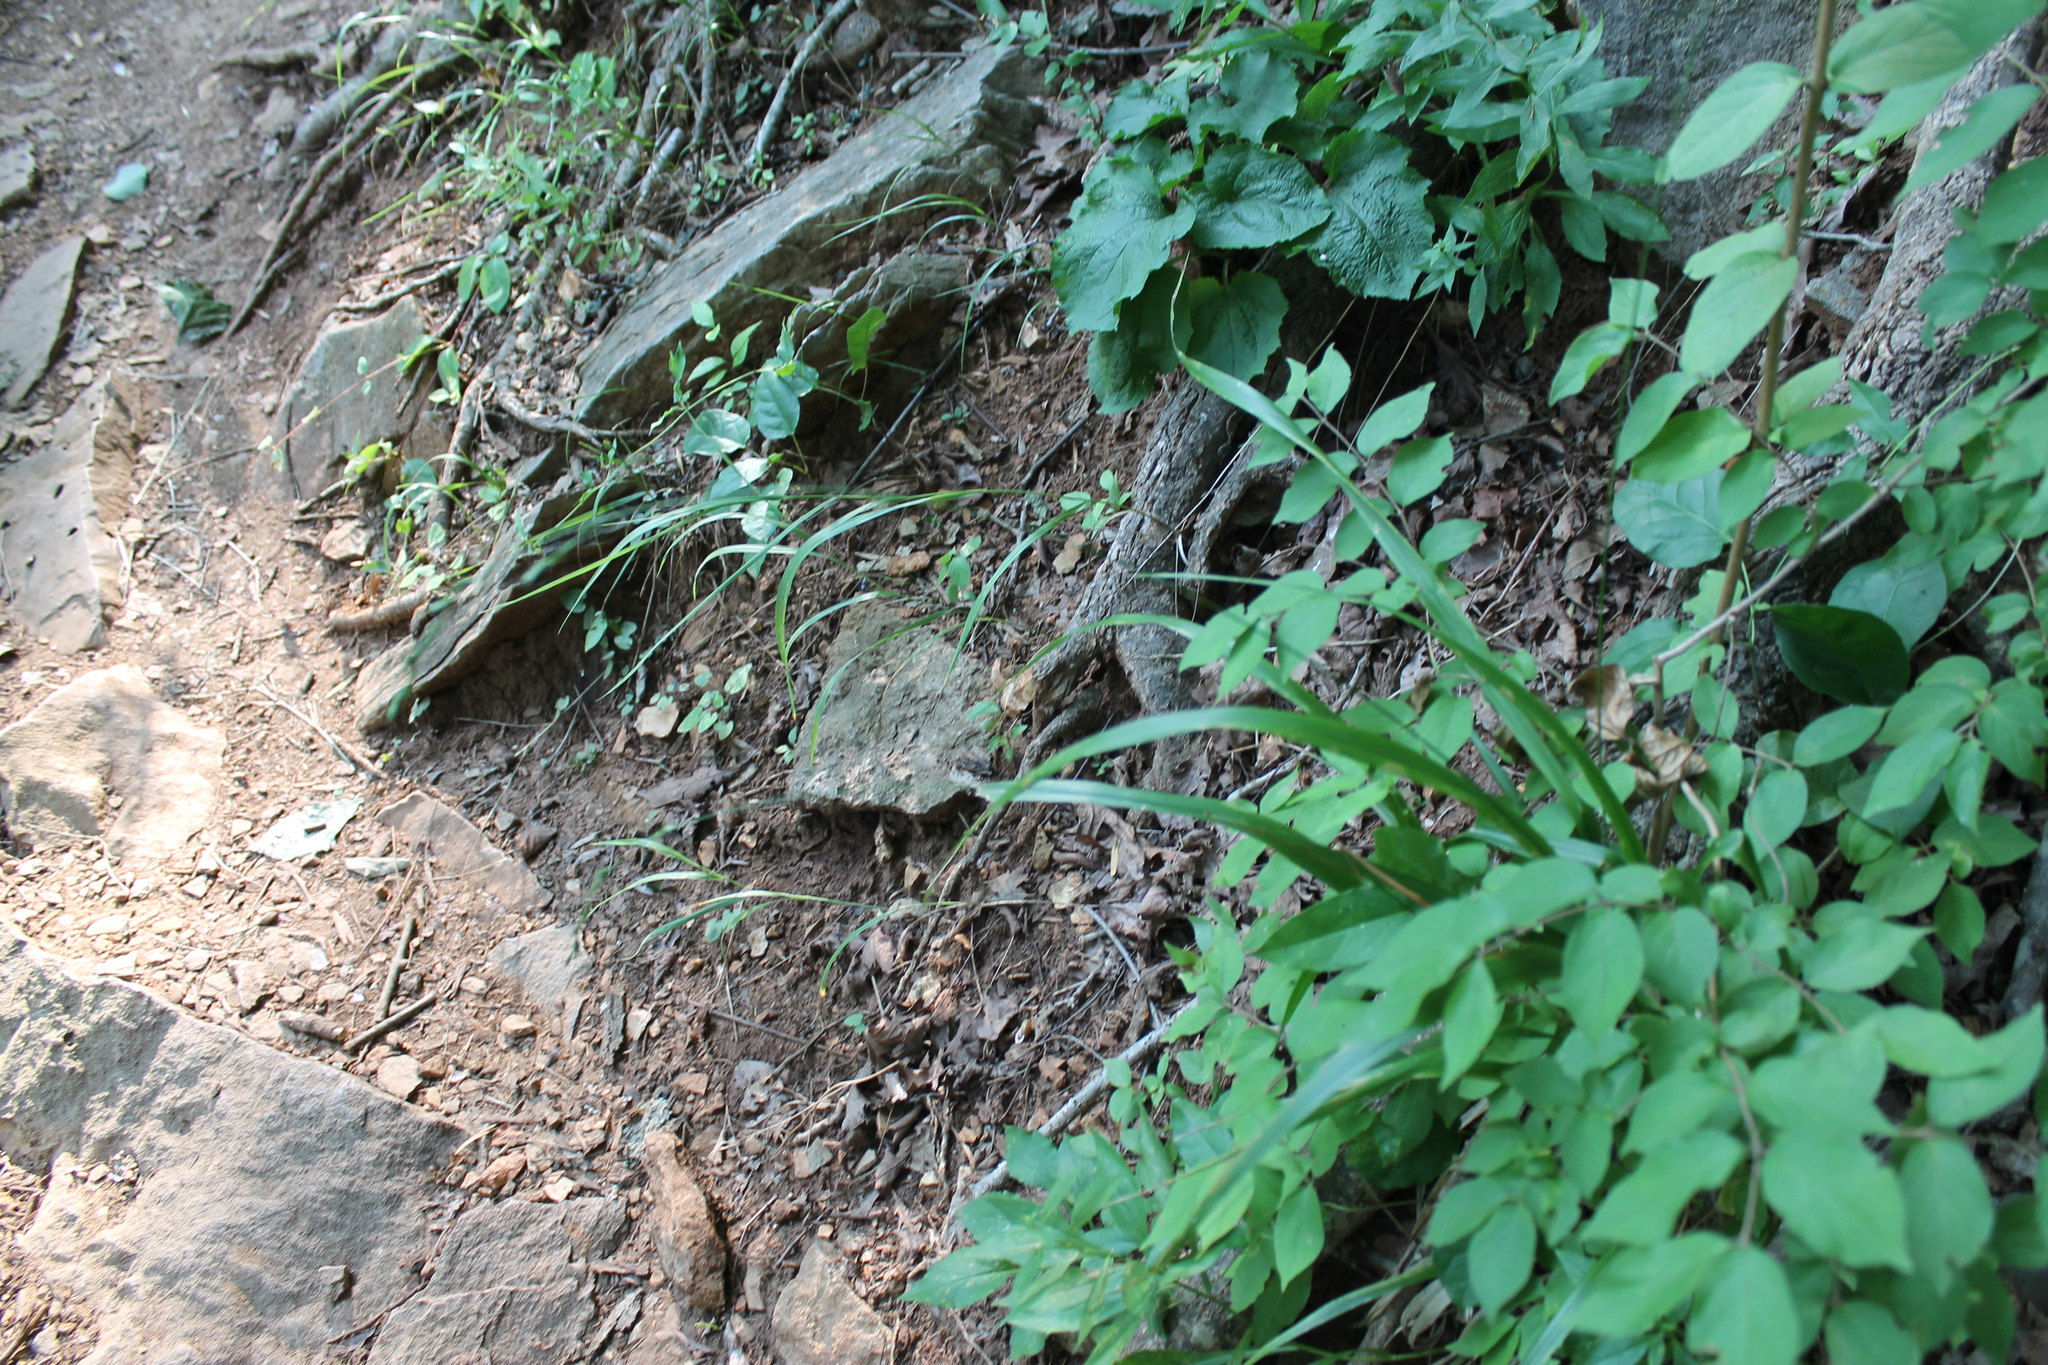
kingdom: Plantae
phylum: Tracheophyta
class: Liliopsida
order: Poales
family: Poaceae
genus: Diarrhena
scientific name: Diarrhena americana
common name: American beakgrain
